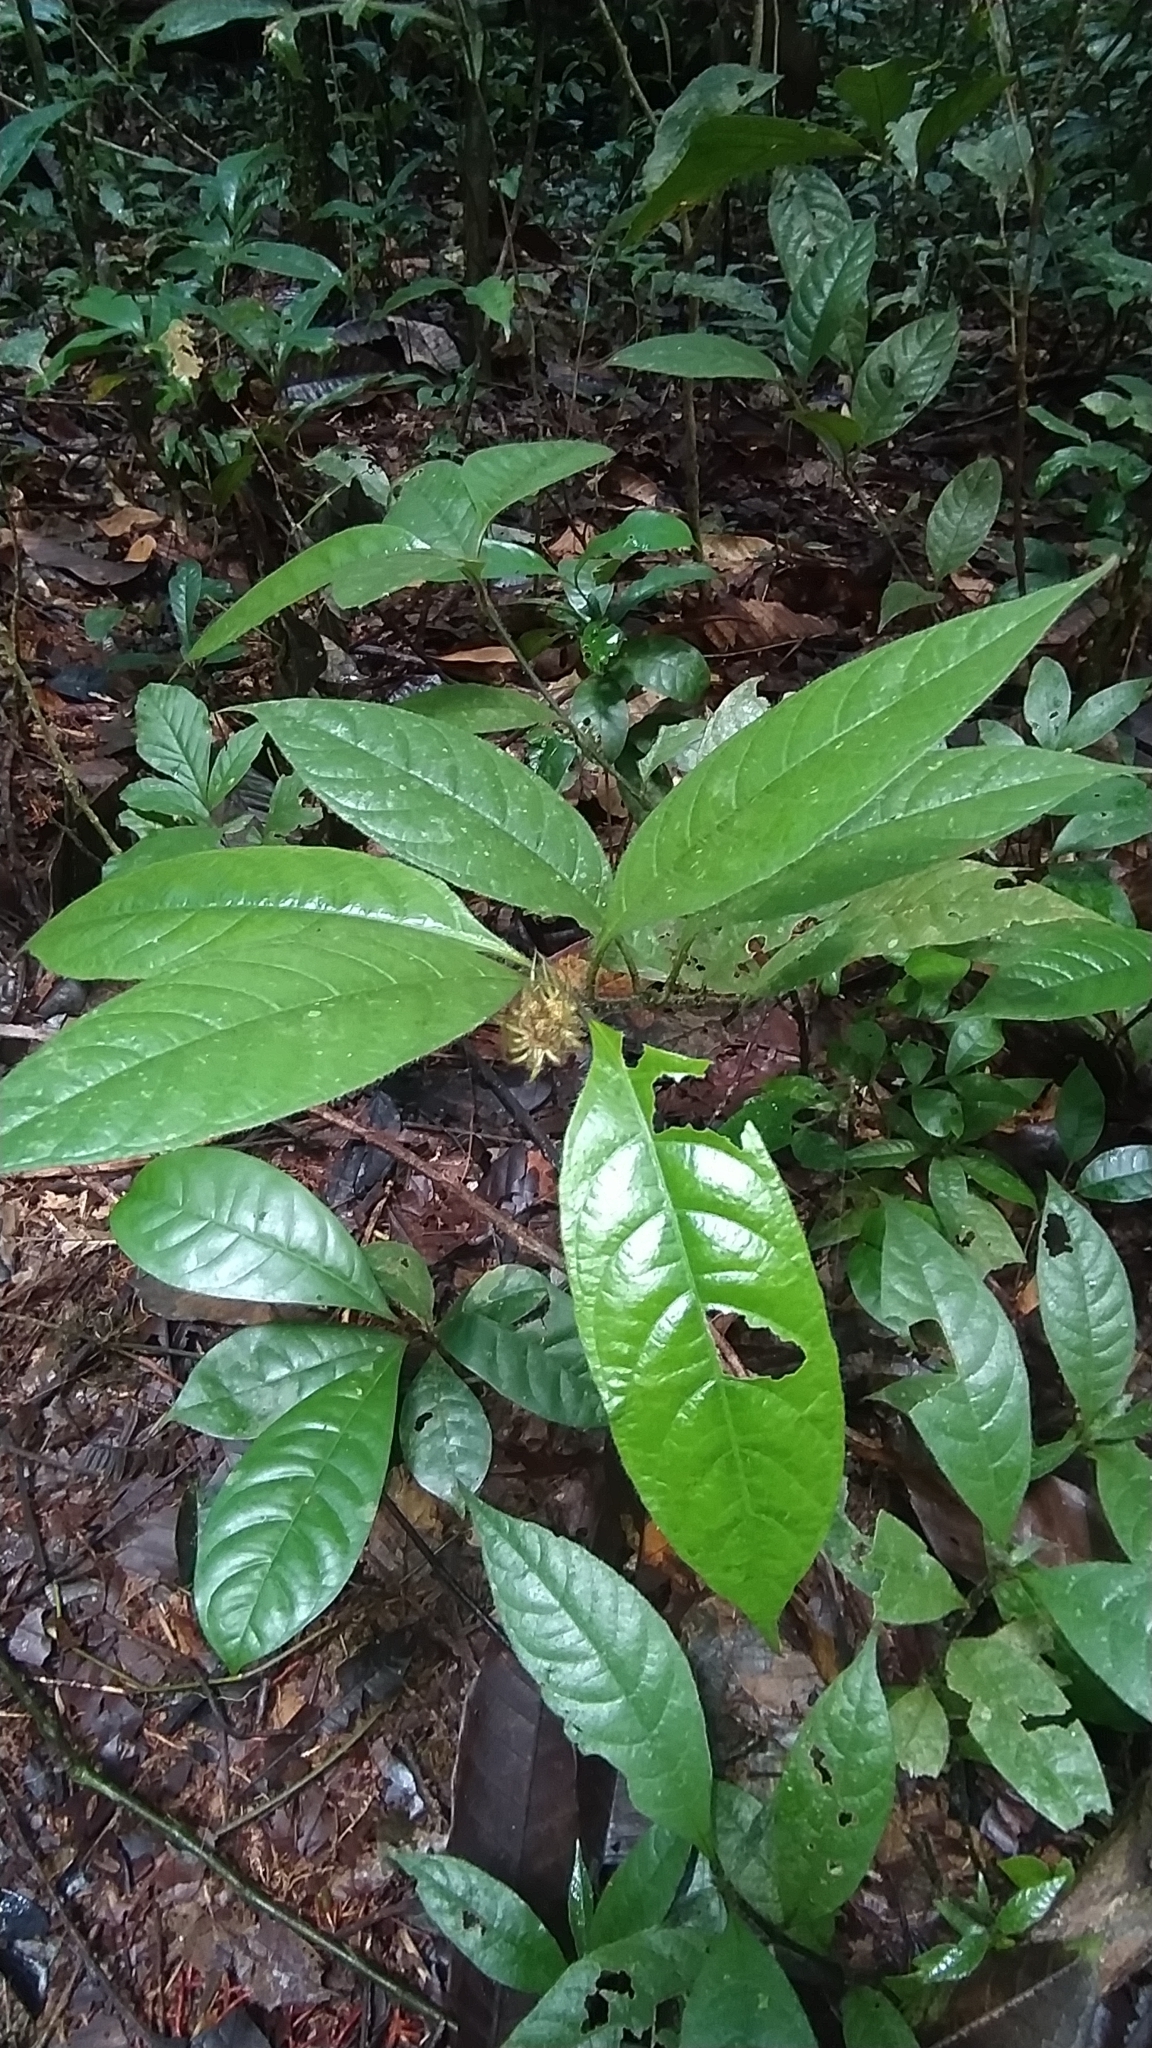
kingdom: Plantae
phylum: Tracheophyta
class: Magnoliopsida
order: Gentianales
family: Rubiaceae
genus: Palicourea
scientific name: Palicourea glabra
